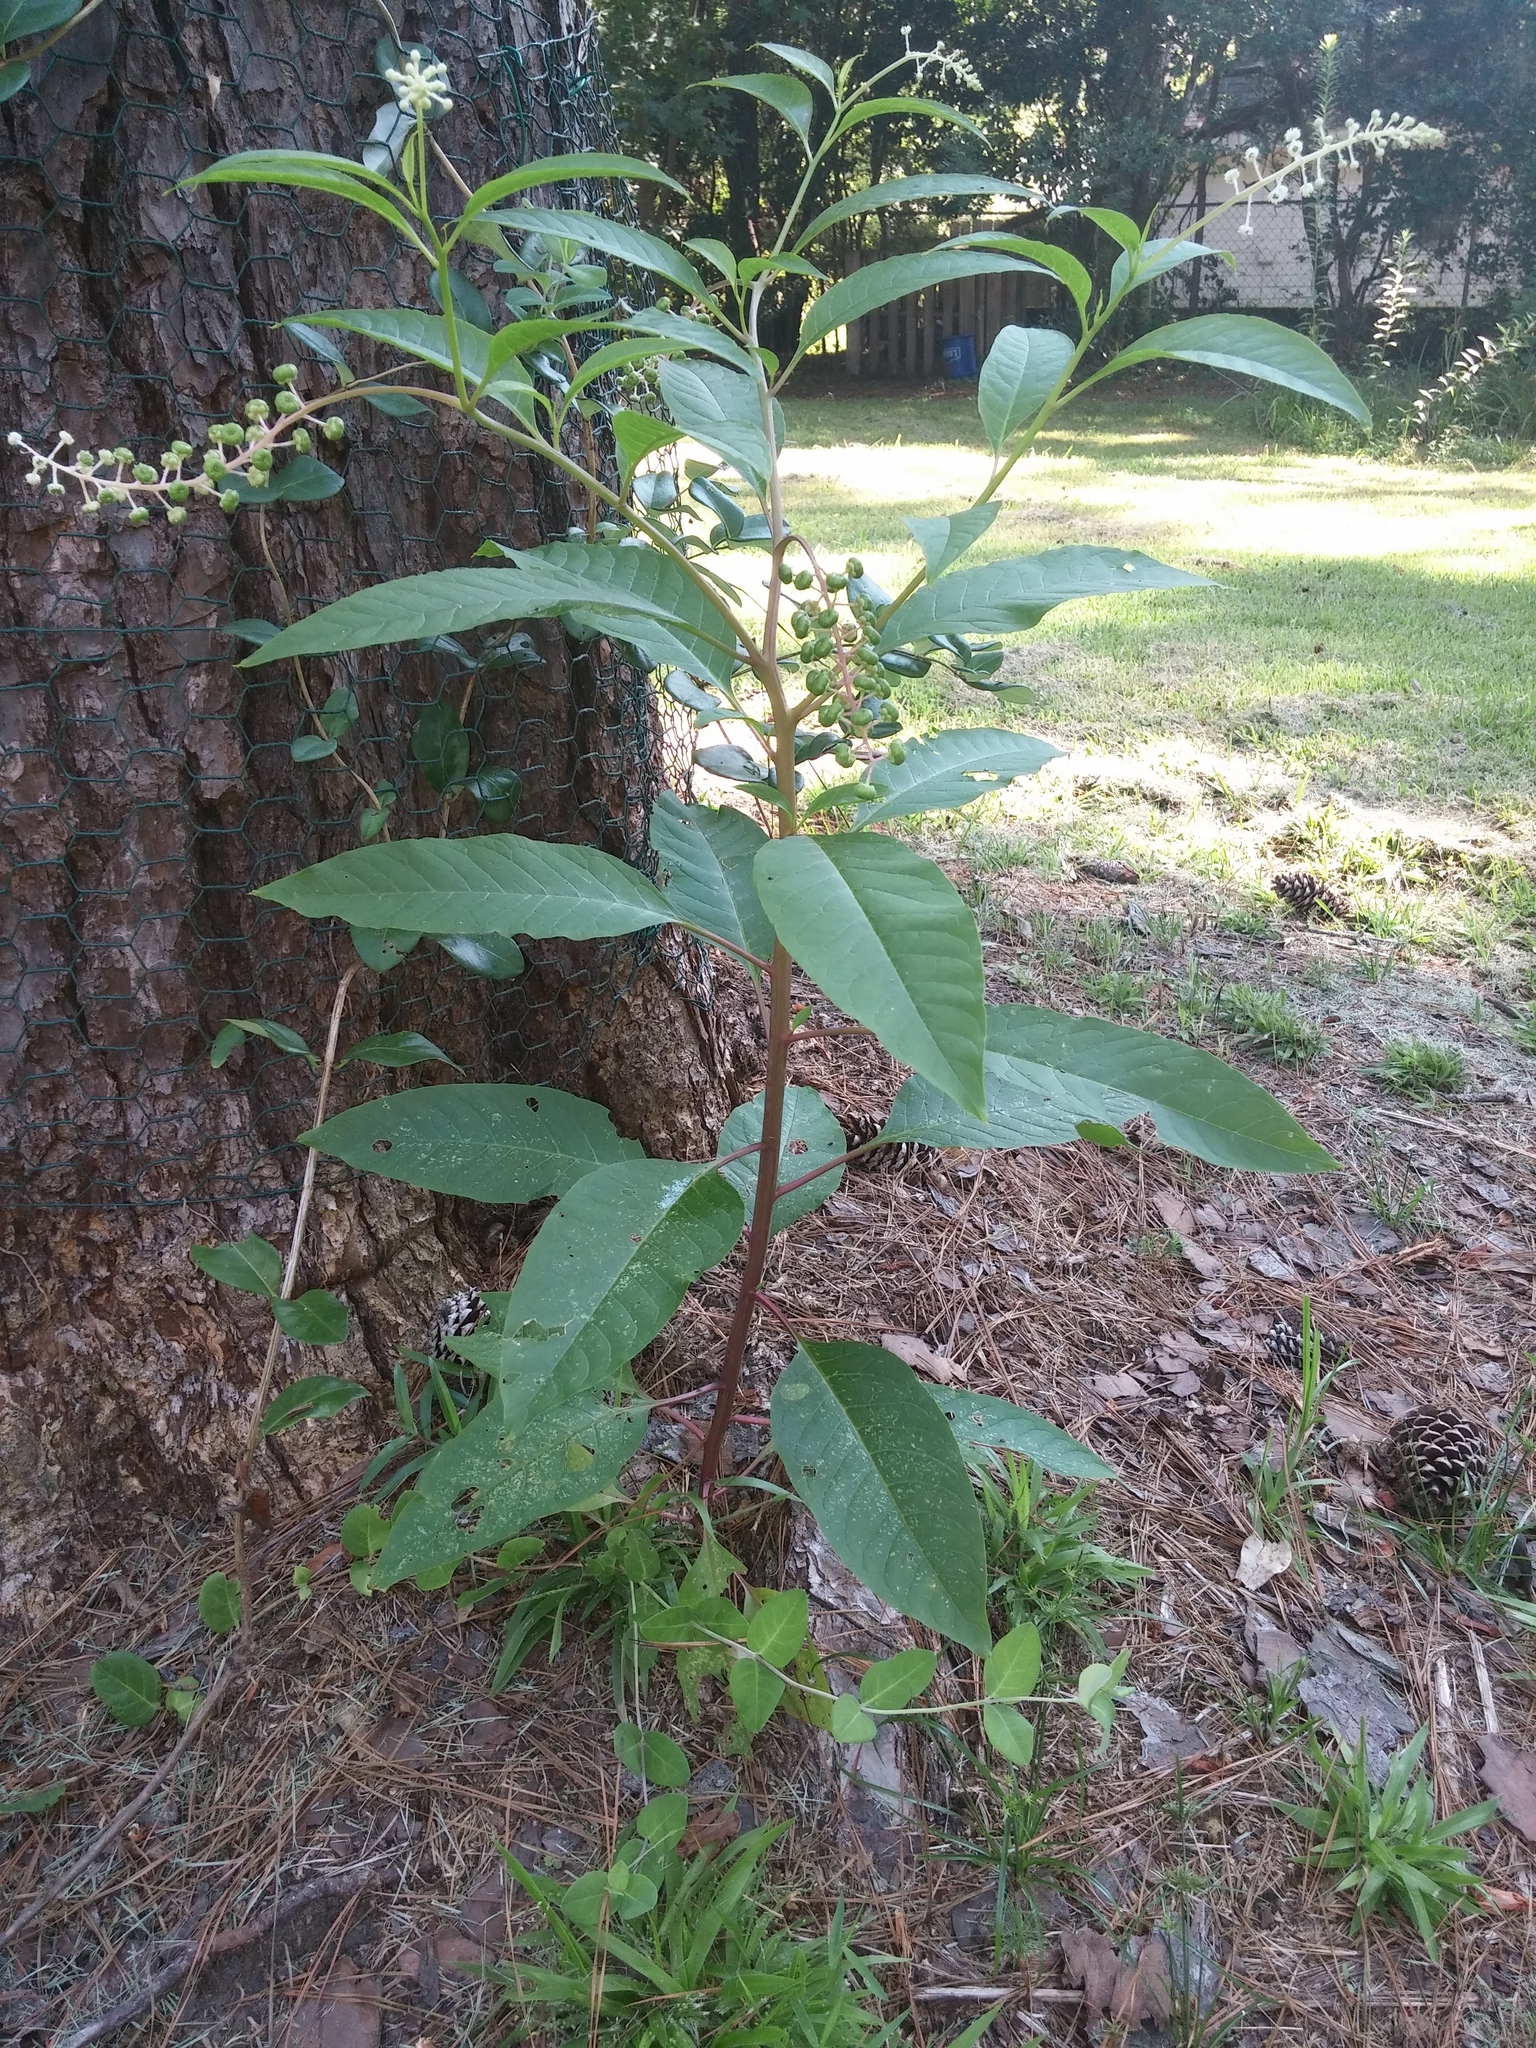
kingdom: Plantae
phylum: Tracheophyta
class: Magnoliopsida
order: Caryophyllales
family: Phytolaccaceae
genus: Phytolacca
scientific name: Phytolacca americana
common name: American pokeweed
